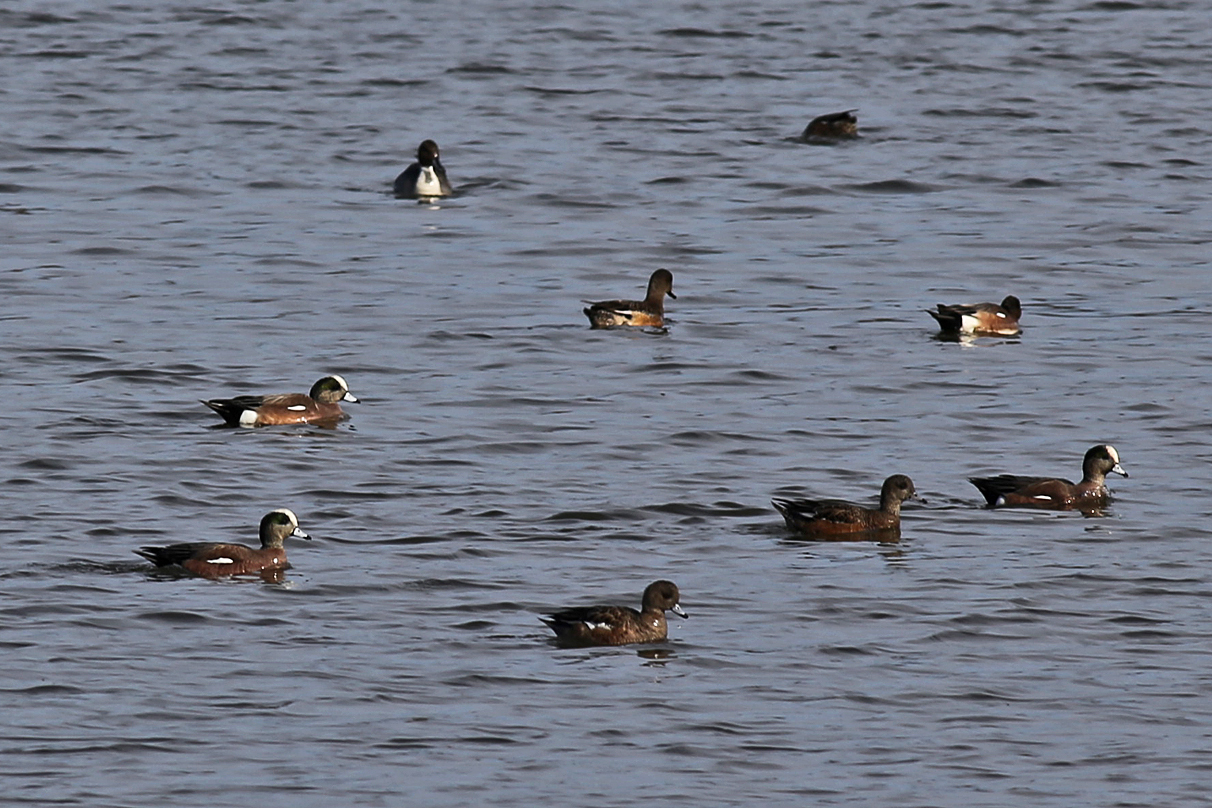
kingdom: Animalia
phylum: Chordata
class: Aves
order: Anseriformes
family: Anatidae
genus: Mareca
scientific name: Mareca americana
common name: American wigeon
